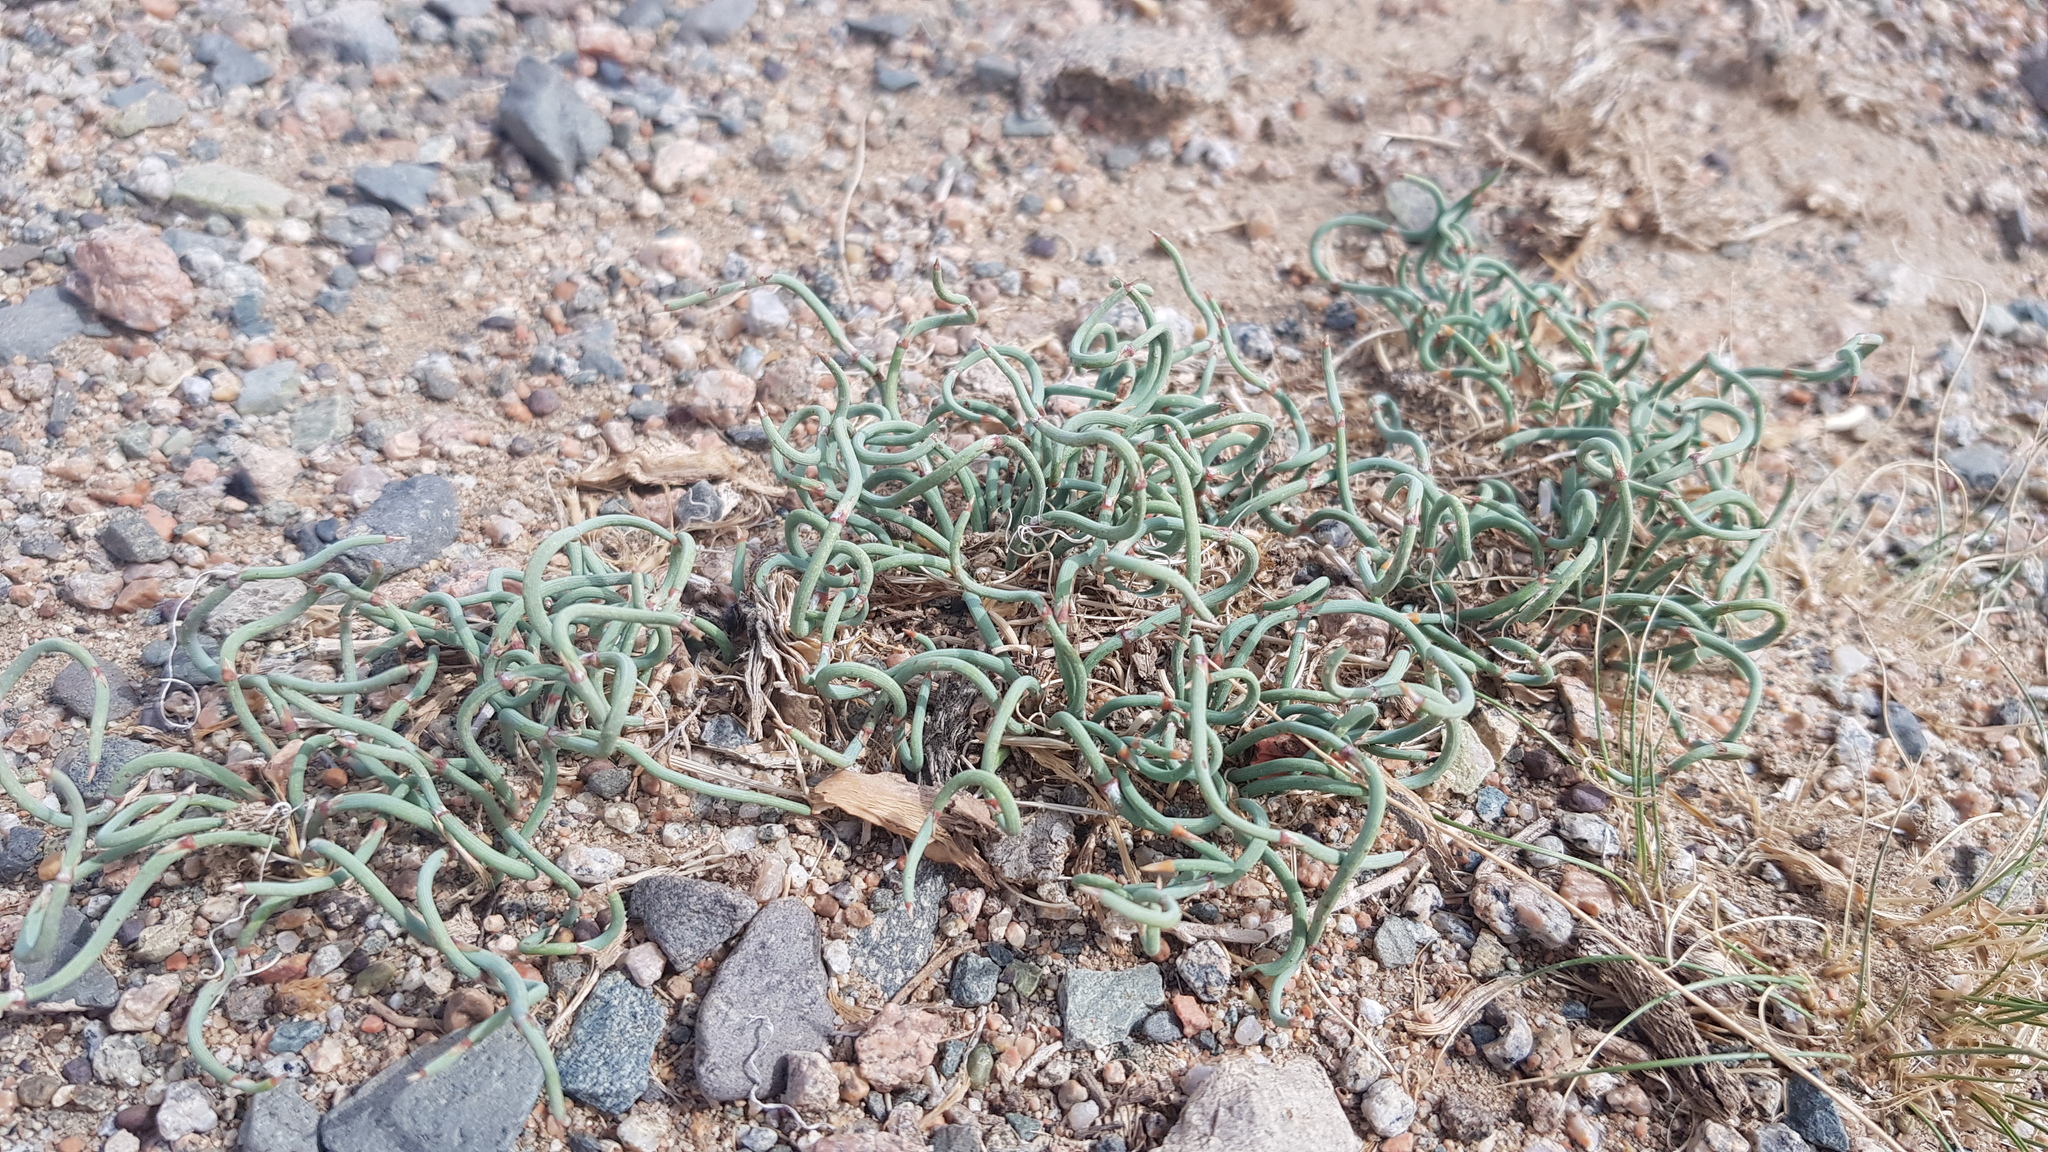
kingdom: Plantae
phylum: Tracheophyta
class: Gnetopsida
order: Ephedrales
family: Ephedraceae
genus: Ephedra
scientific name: Ephedra sinica
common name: Chinese ephedra
